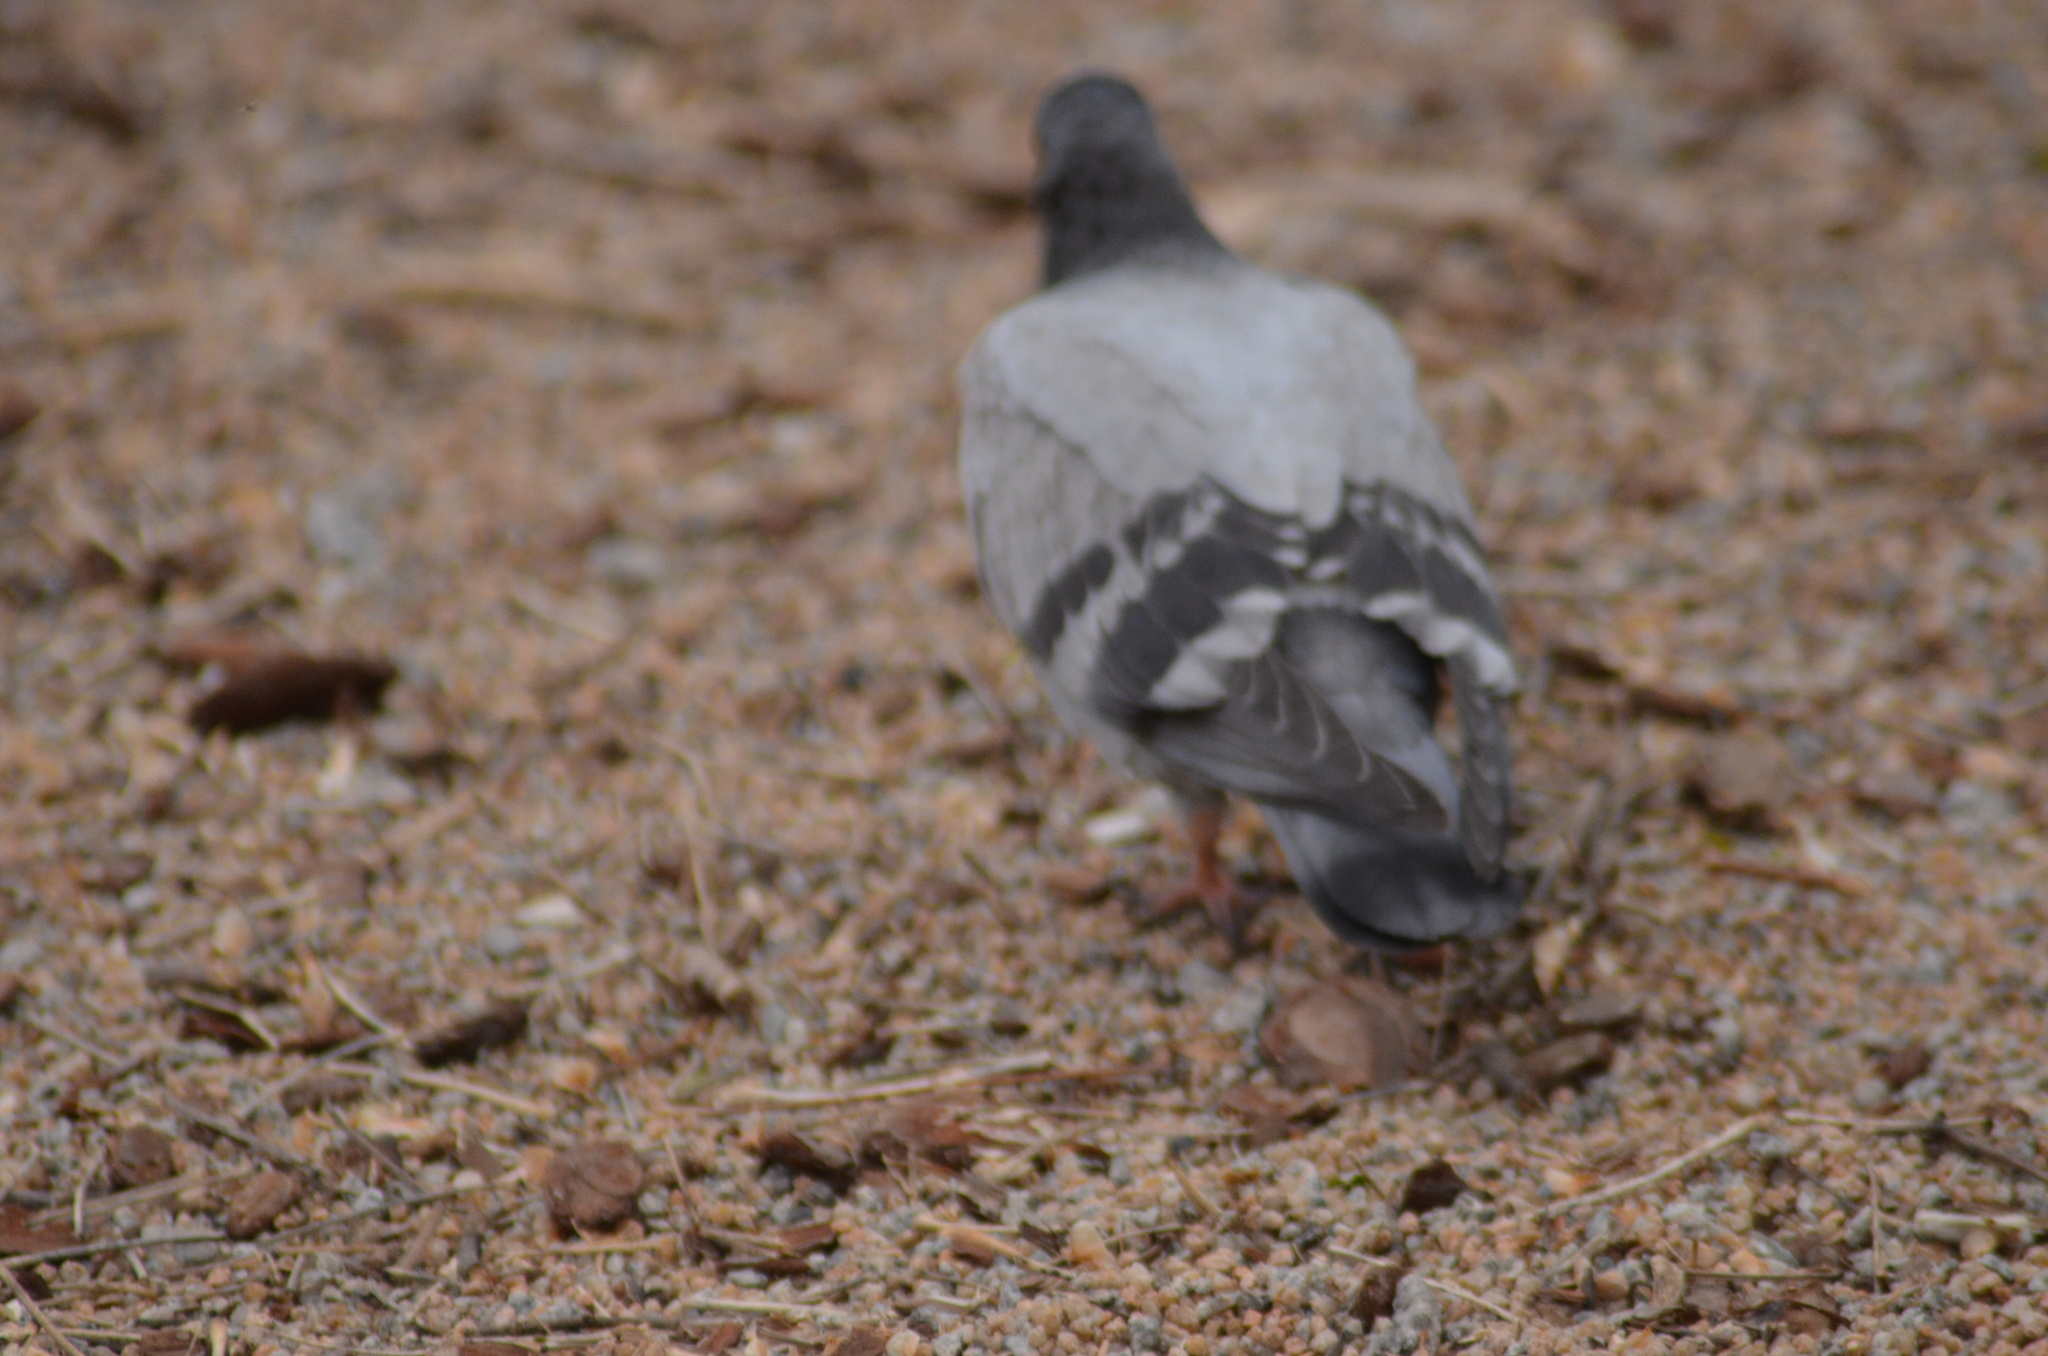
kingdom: Animalia
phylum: Chordata
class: Aves
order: Columbiformes
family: Columbidae
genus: Columba
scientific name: Columba livia
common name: Rock pigeon
